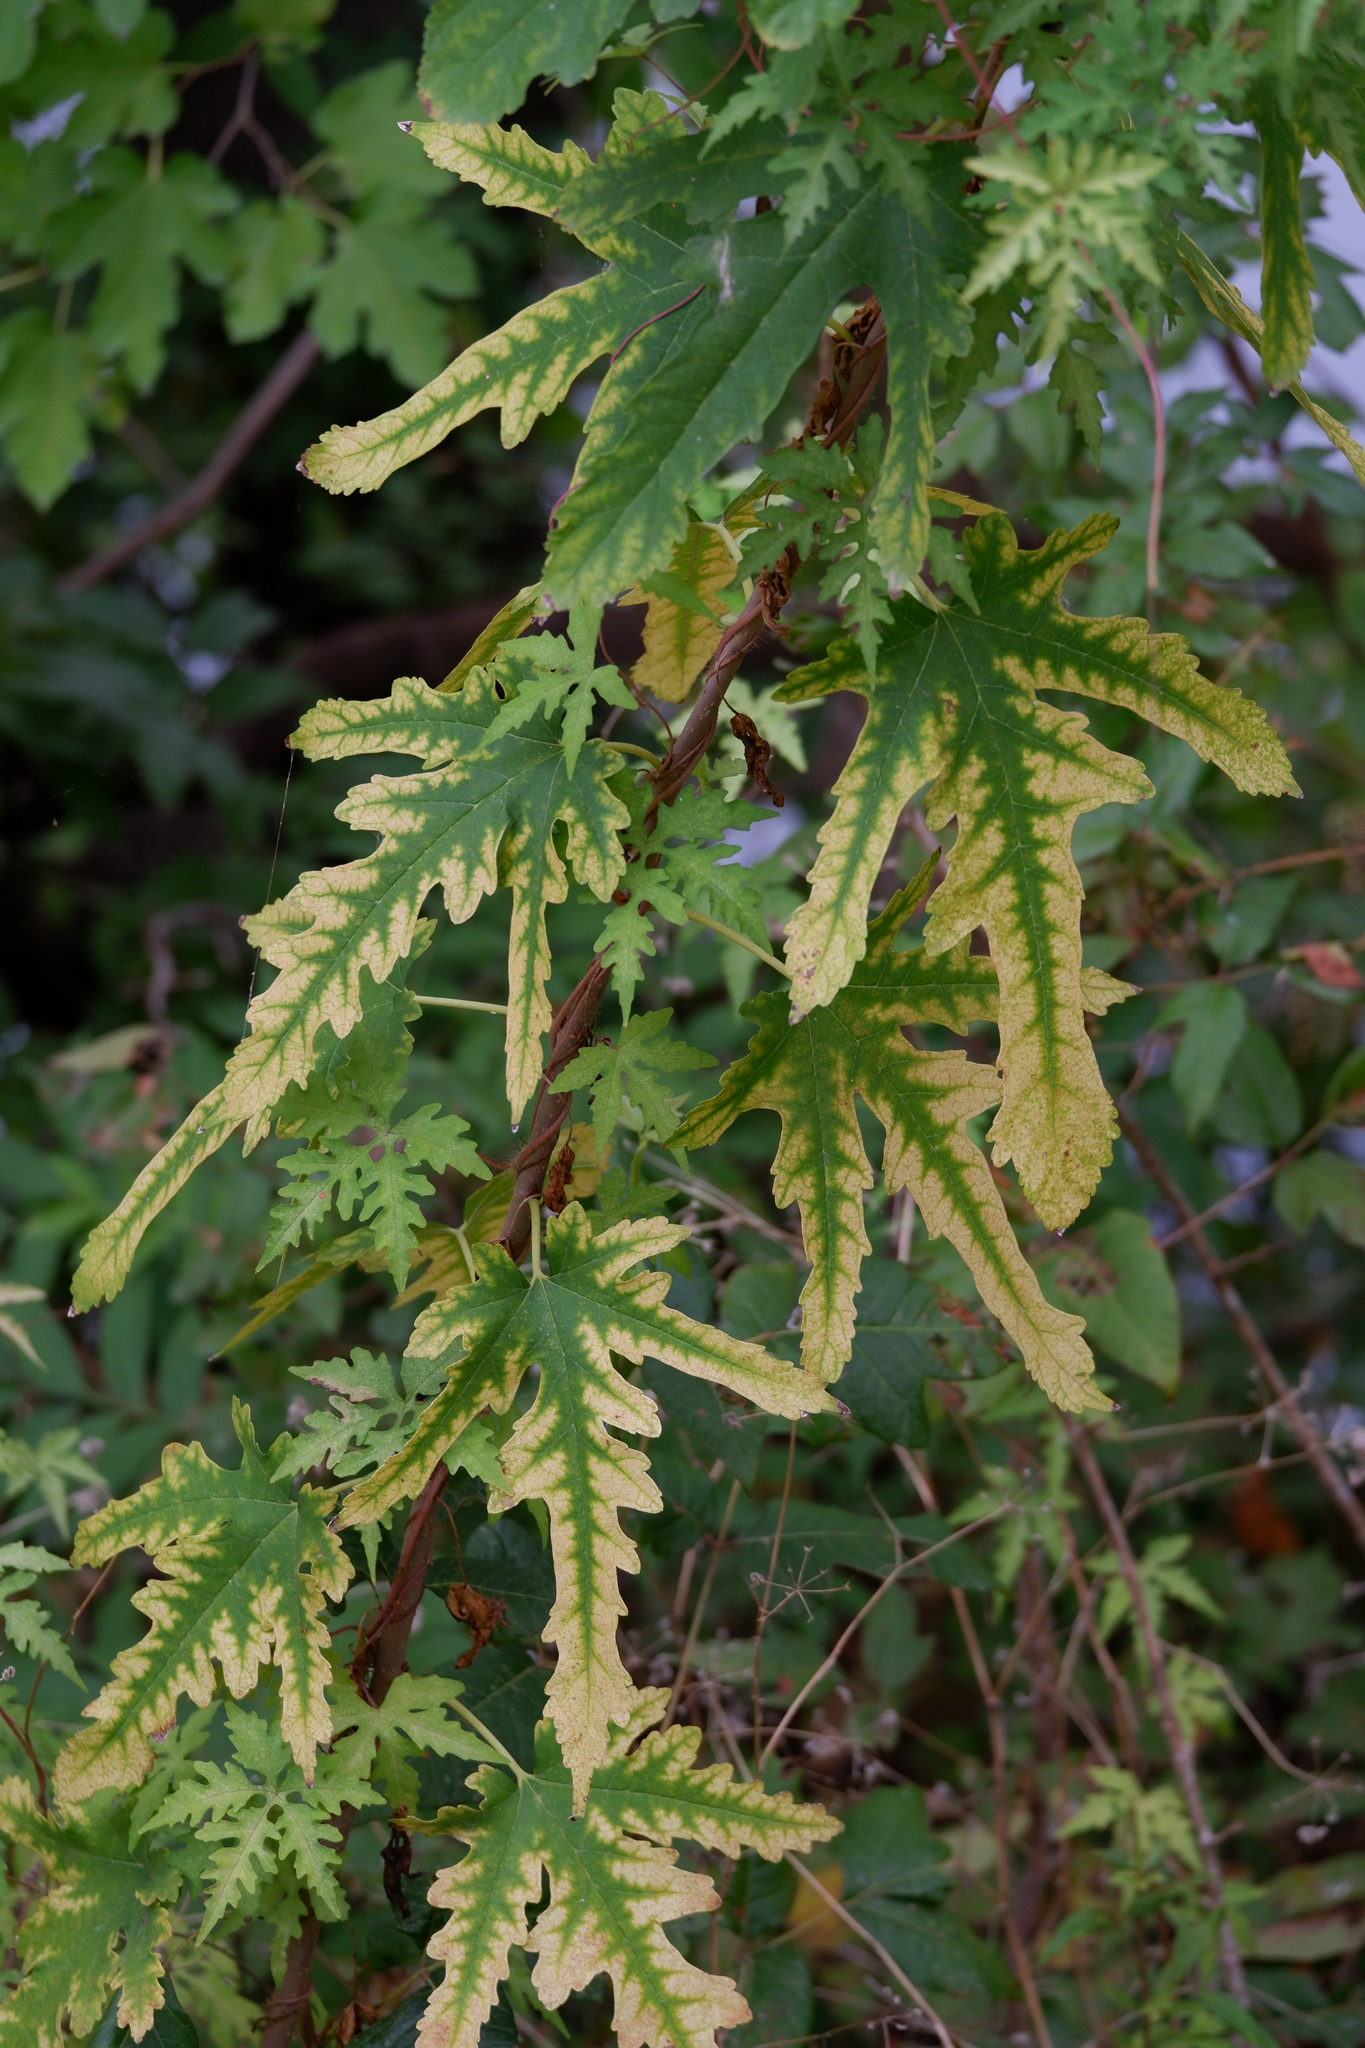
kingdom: Plantae
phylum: Tracheophyta
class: Magnoliopsida
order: Rosales
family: Moraceae
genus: Morus
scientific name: Morus indica
